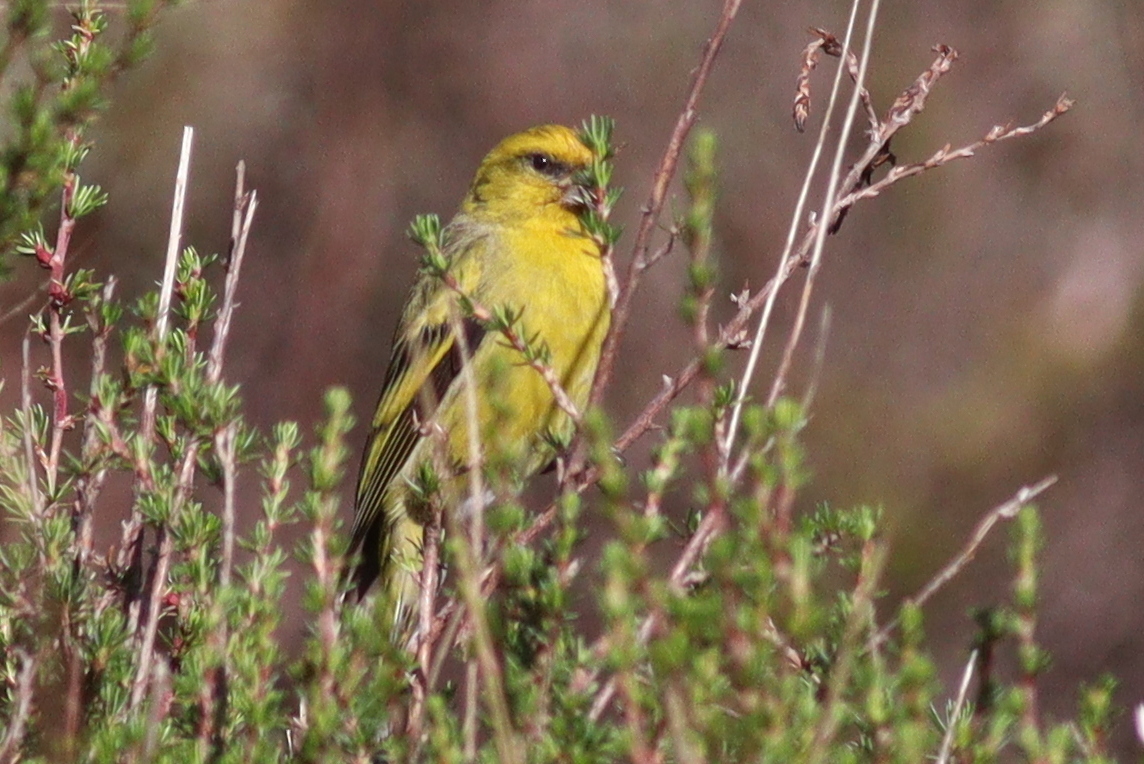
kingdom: Animalia
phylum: Chordata
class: Aves
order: Passeriformes
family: Fringillidae
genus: Serinus
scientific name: Serinus flavivertex
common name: Yellow-crowned canary
